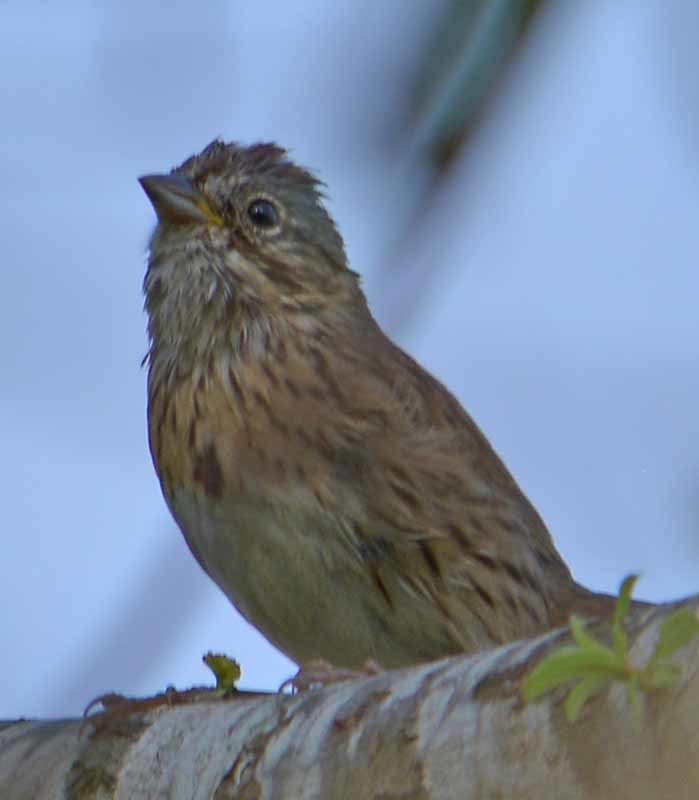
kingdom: Animalia
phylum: Chordata
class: Aves
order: Passeriformes
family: Passerellidae
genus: Melospiza
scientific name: Melospiza lincolnii
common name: Lincoln's sparrow
